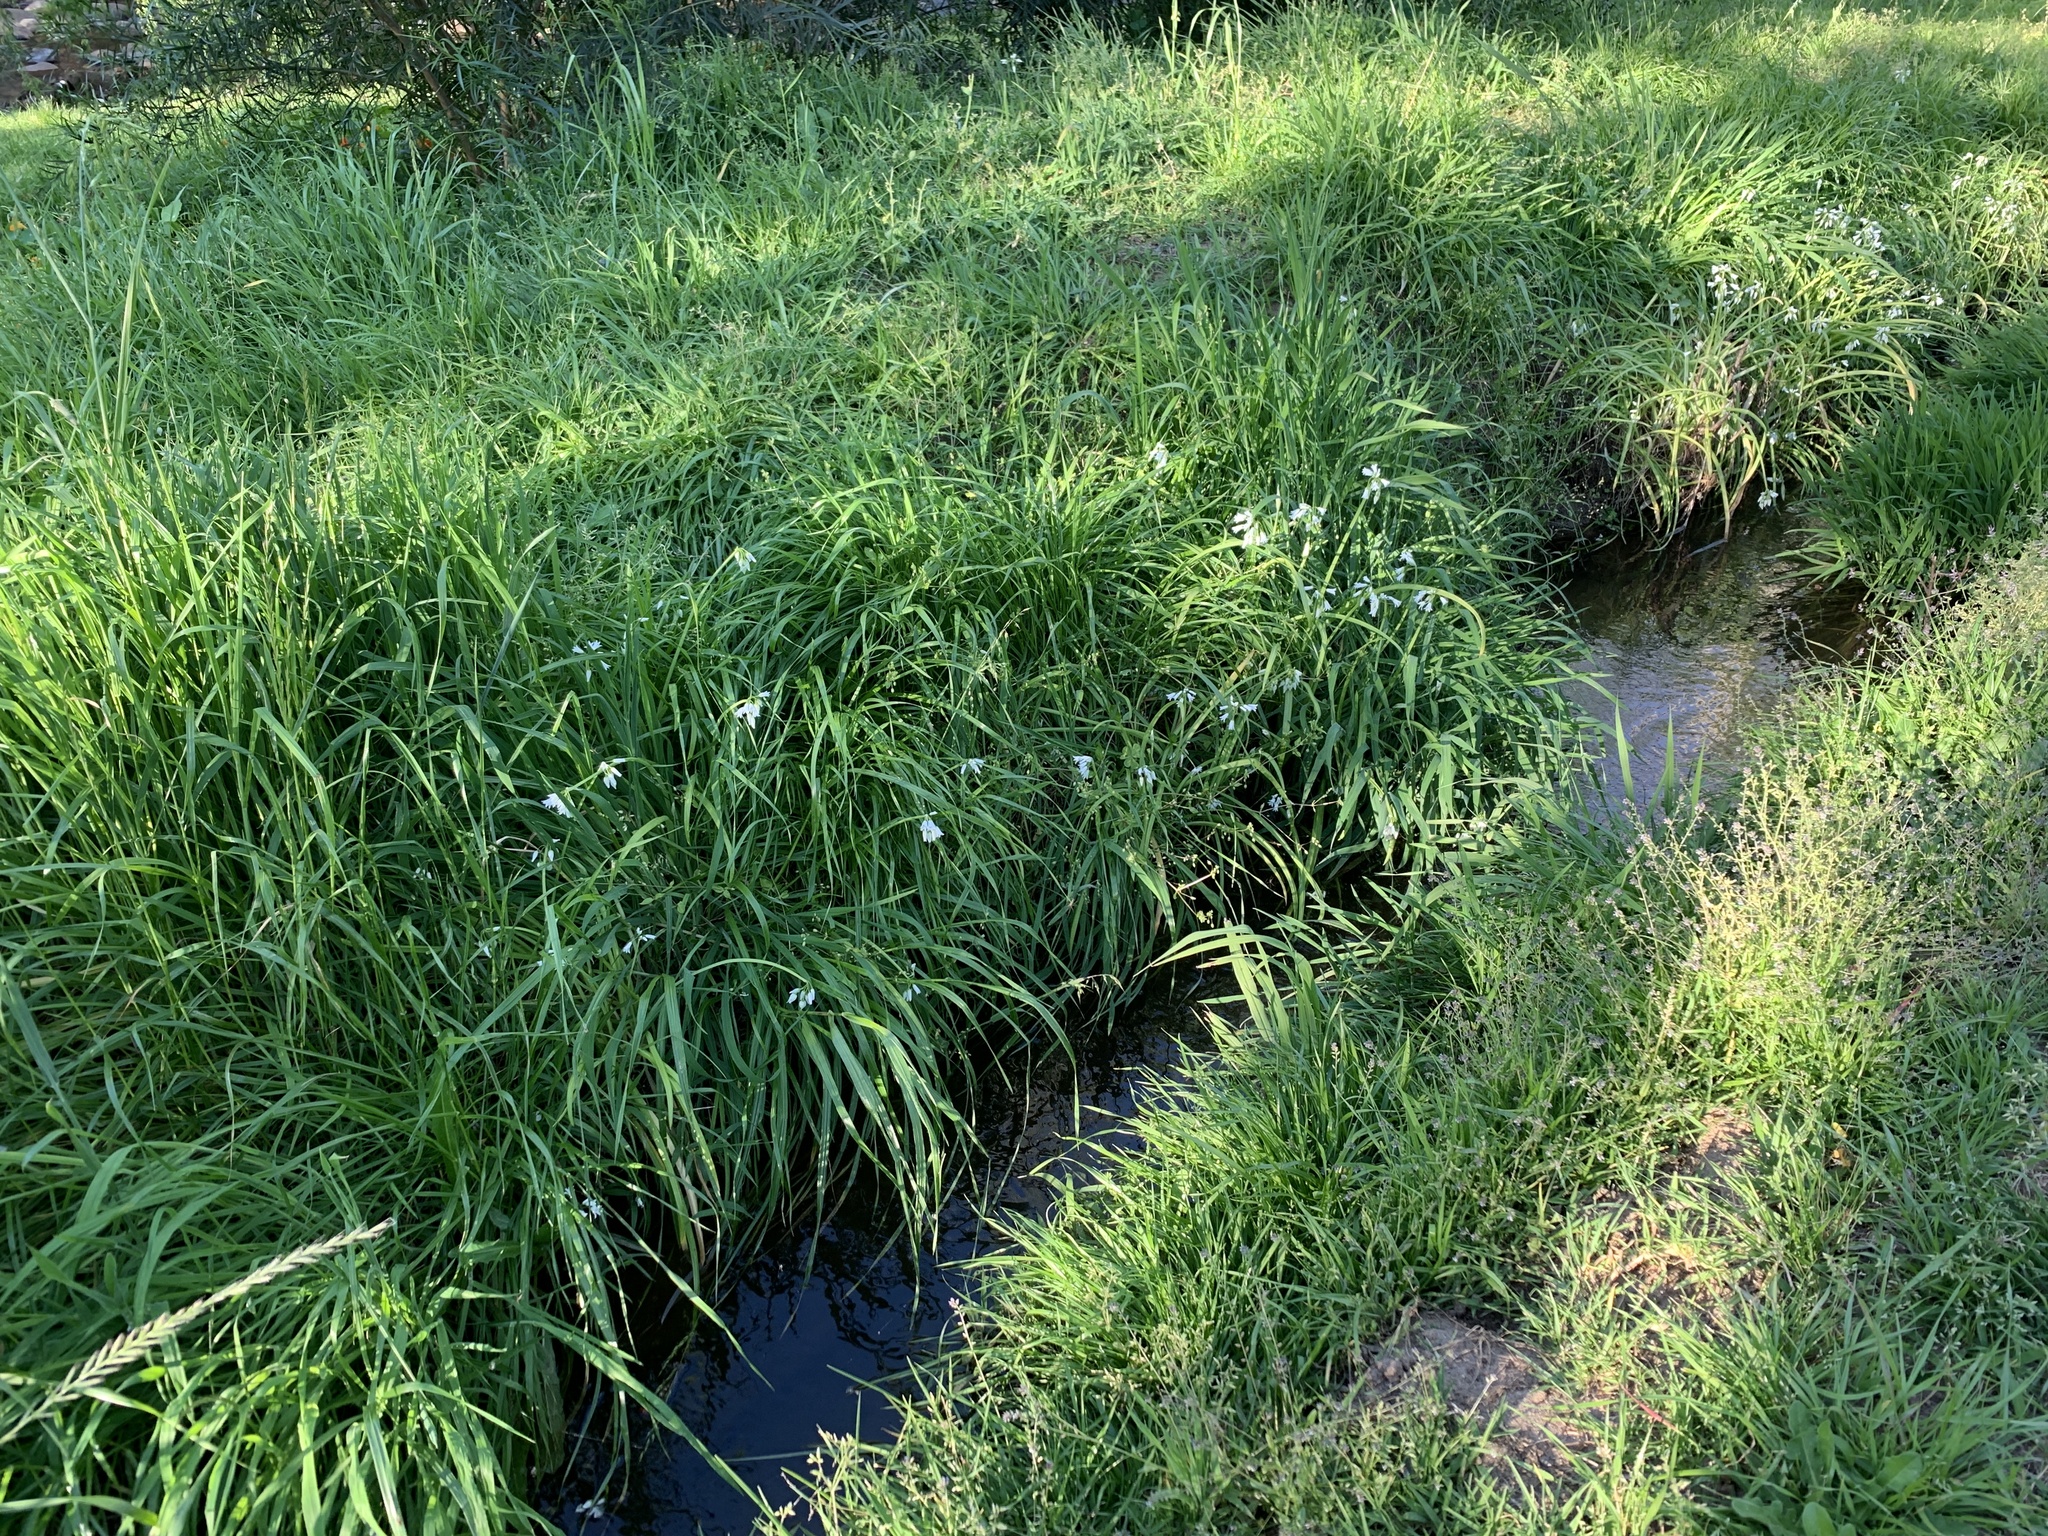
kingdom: Plantae
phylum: Tracheophyta
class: Liliopsida
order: Asparagales
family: Amaryllidaceae
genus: Allium
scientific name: Allium triquetrum
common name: Three-cornered garlic
